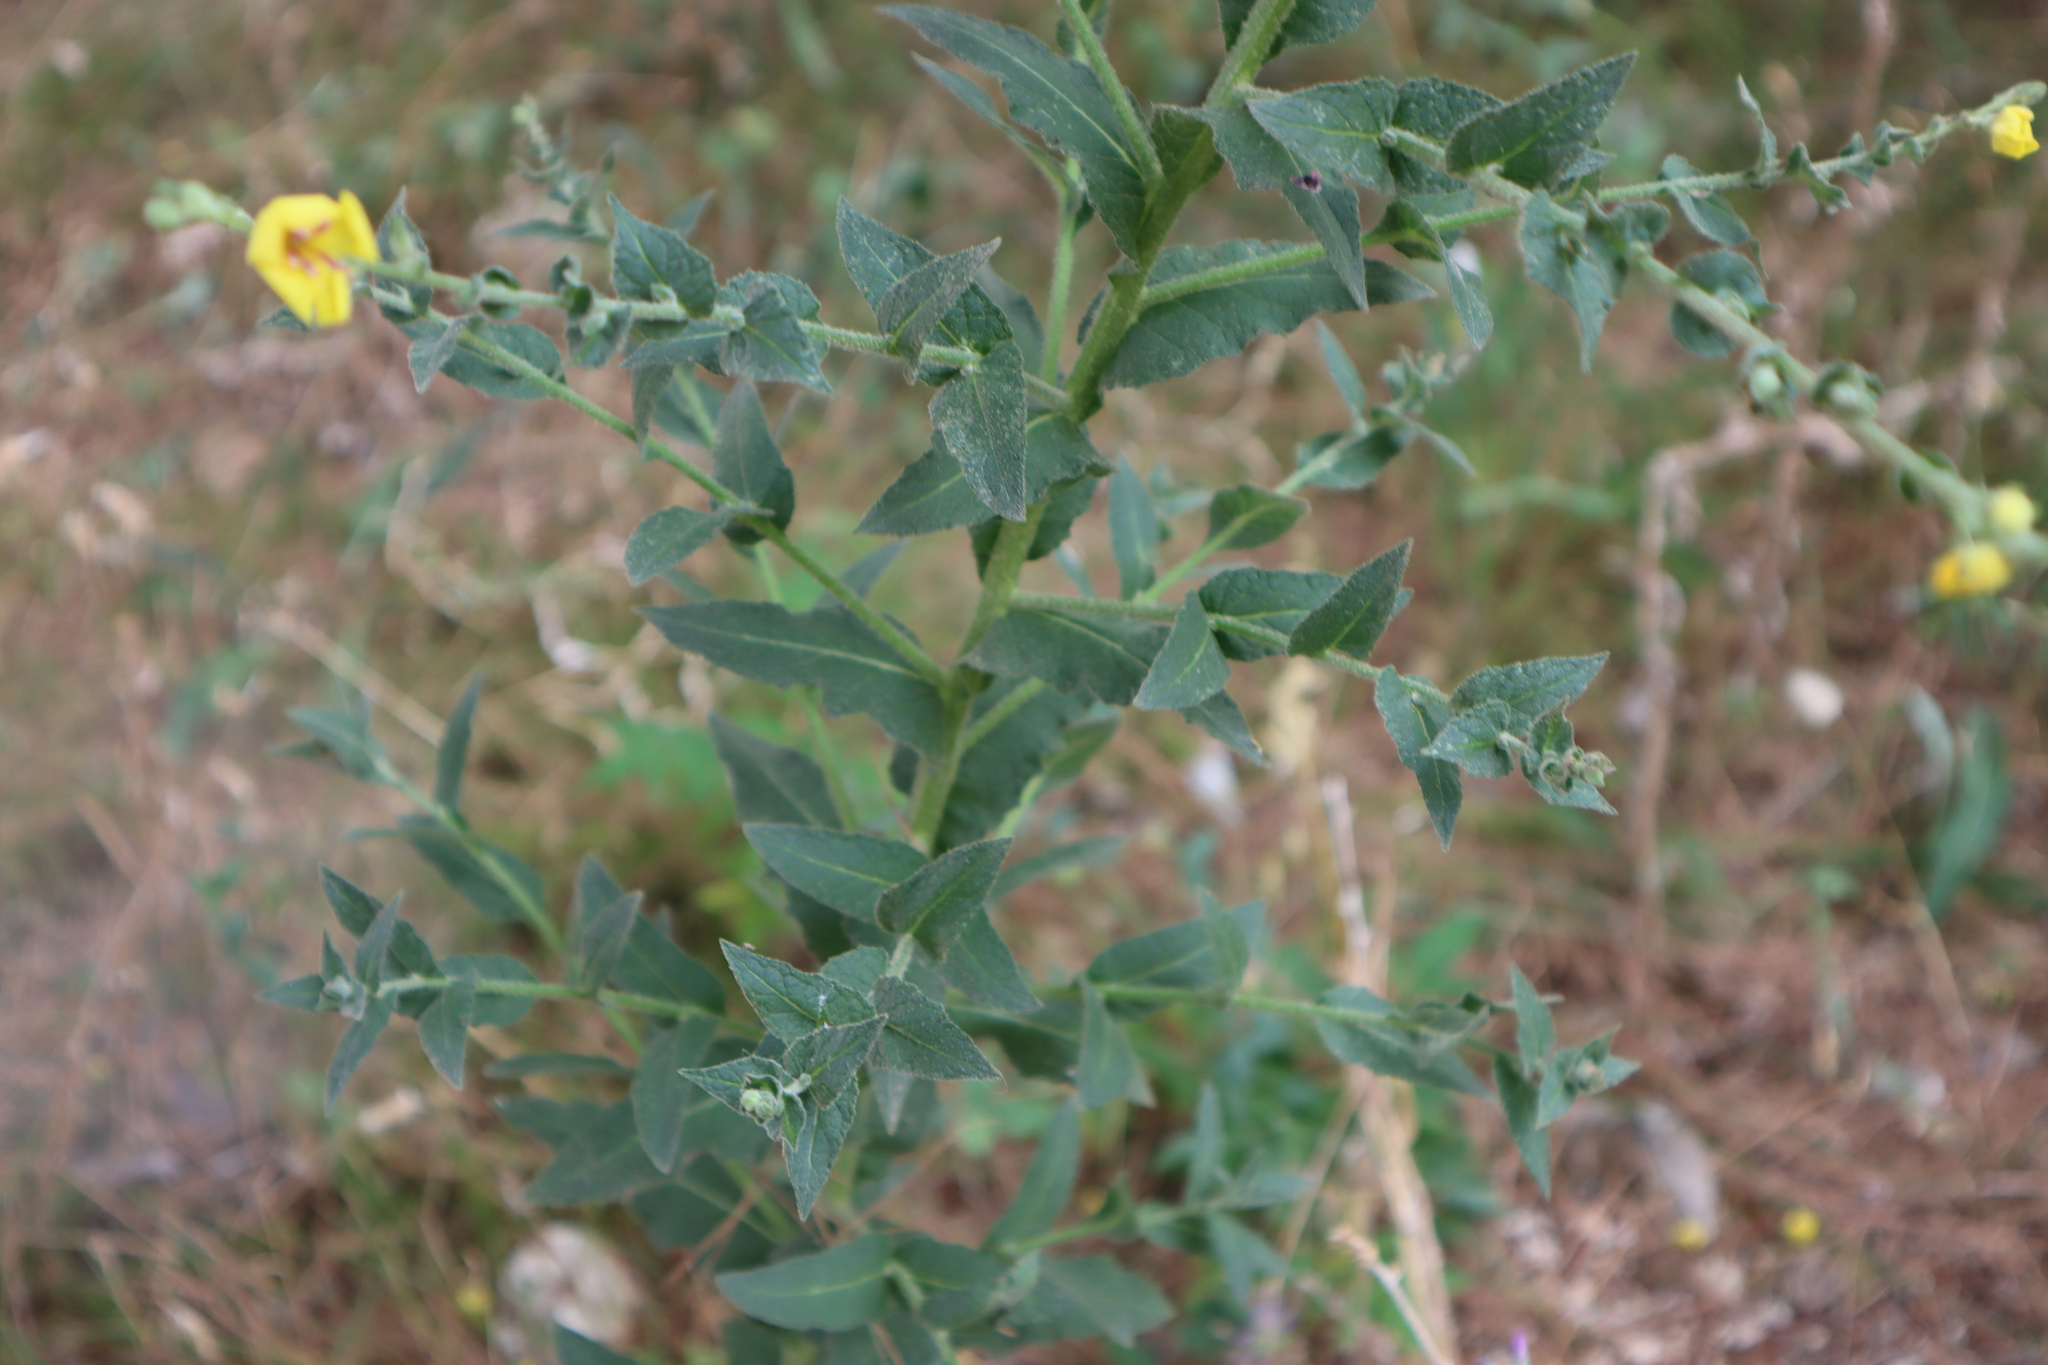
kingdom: Plantae
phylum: Tracheophyta
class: Magnoliopsida
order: Lamiales
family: Scrophulariaceae
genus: Verbascum
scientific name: Verbascum sinuatum
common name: Wavyleaf mullein
